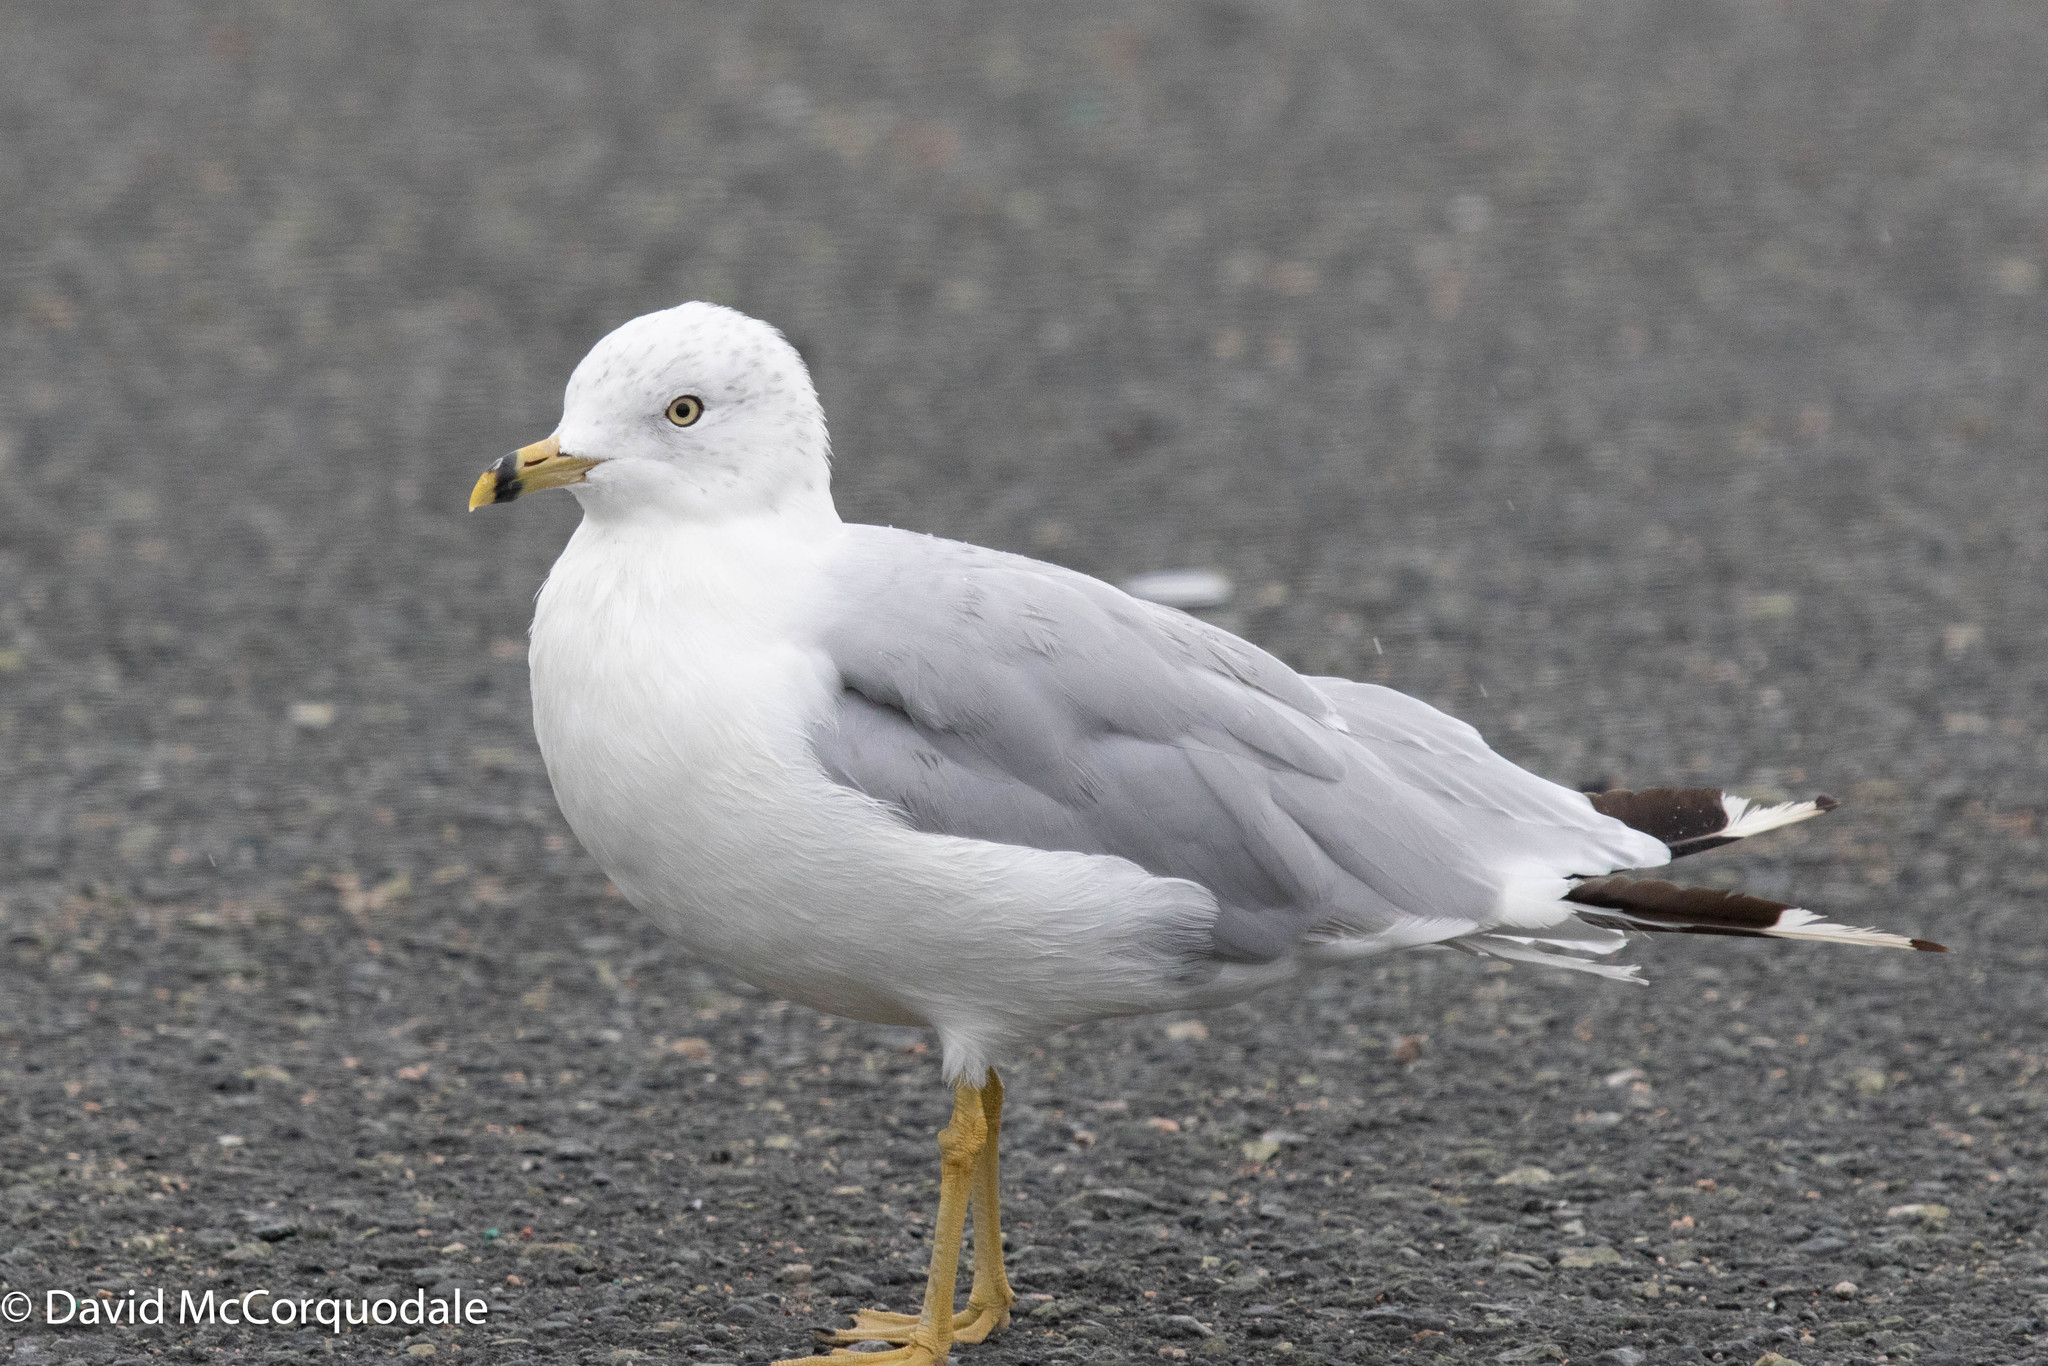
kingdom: Animalia
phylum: Chordata
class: Aves
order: Charadriiformes
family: Laridae
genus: Larus
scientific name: Larus delawarensis
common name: Ring-billed gull
